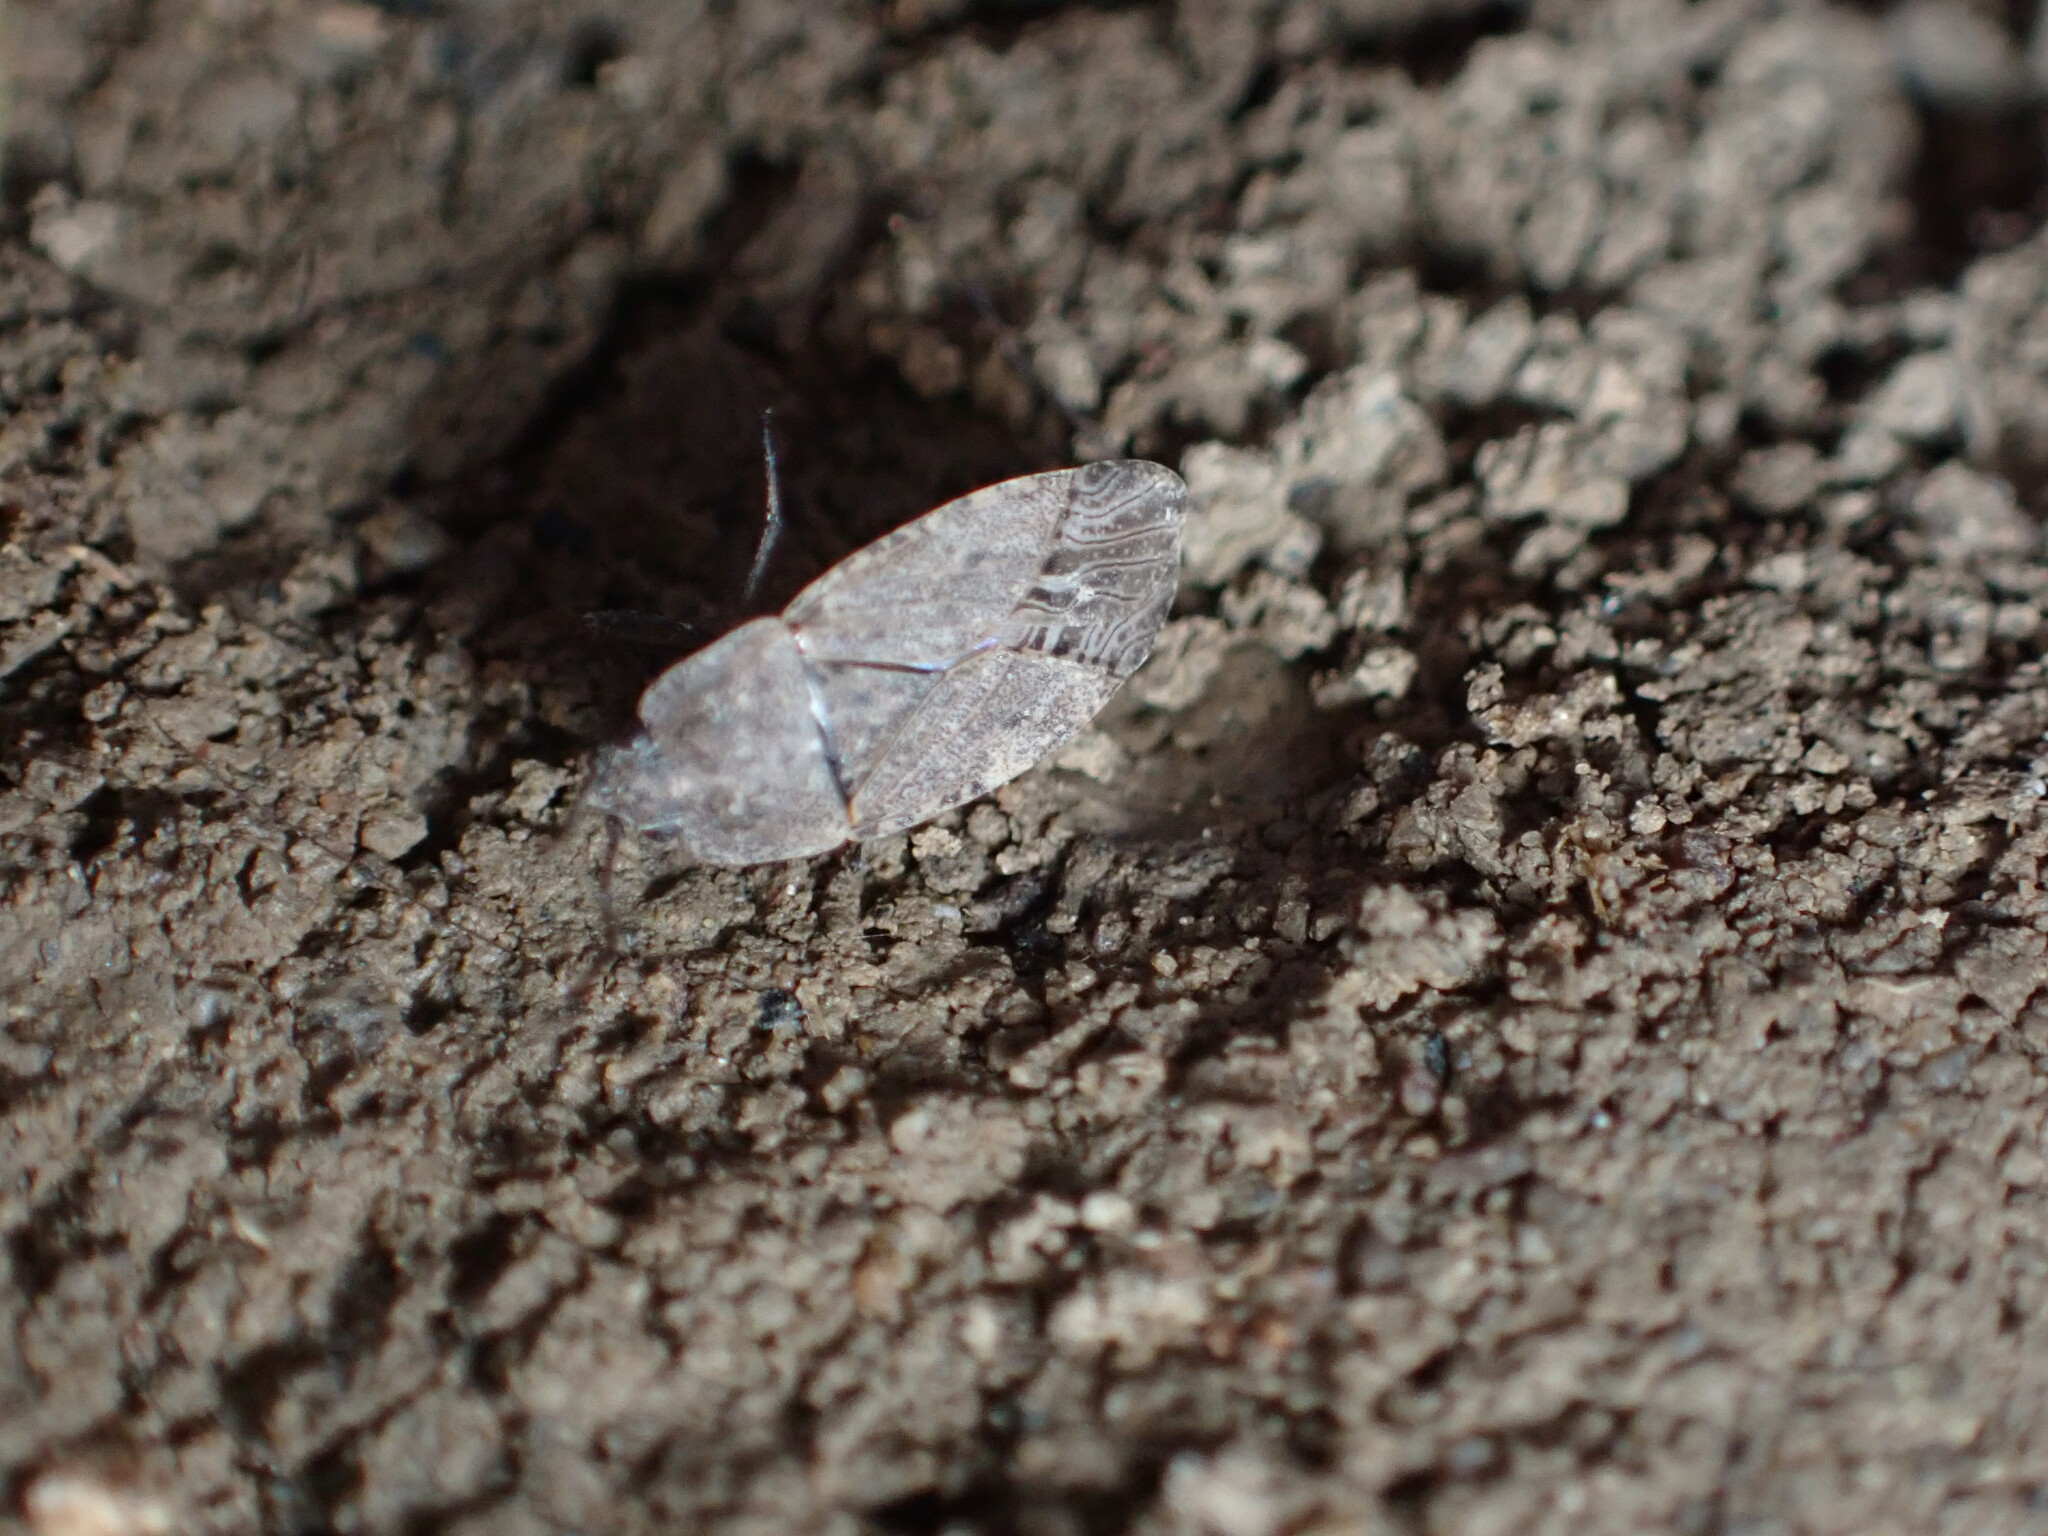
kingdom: Animalia
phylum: Arthropoda
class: Insecta
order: Hemiptera
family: Rhyparochromidae
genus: Emblethis
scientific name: Emblethis vicarius
